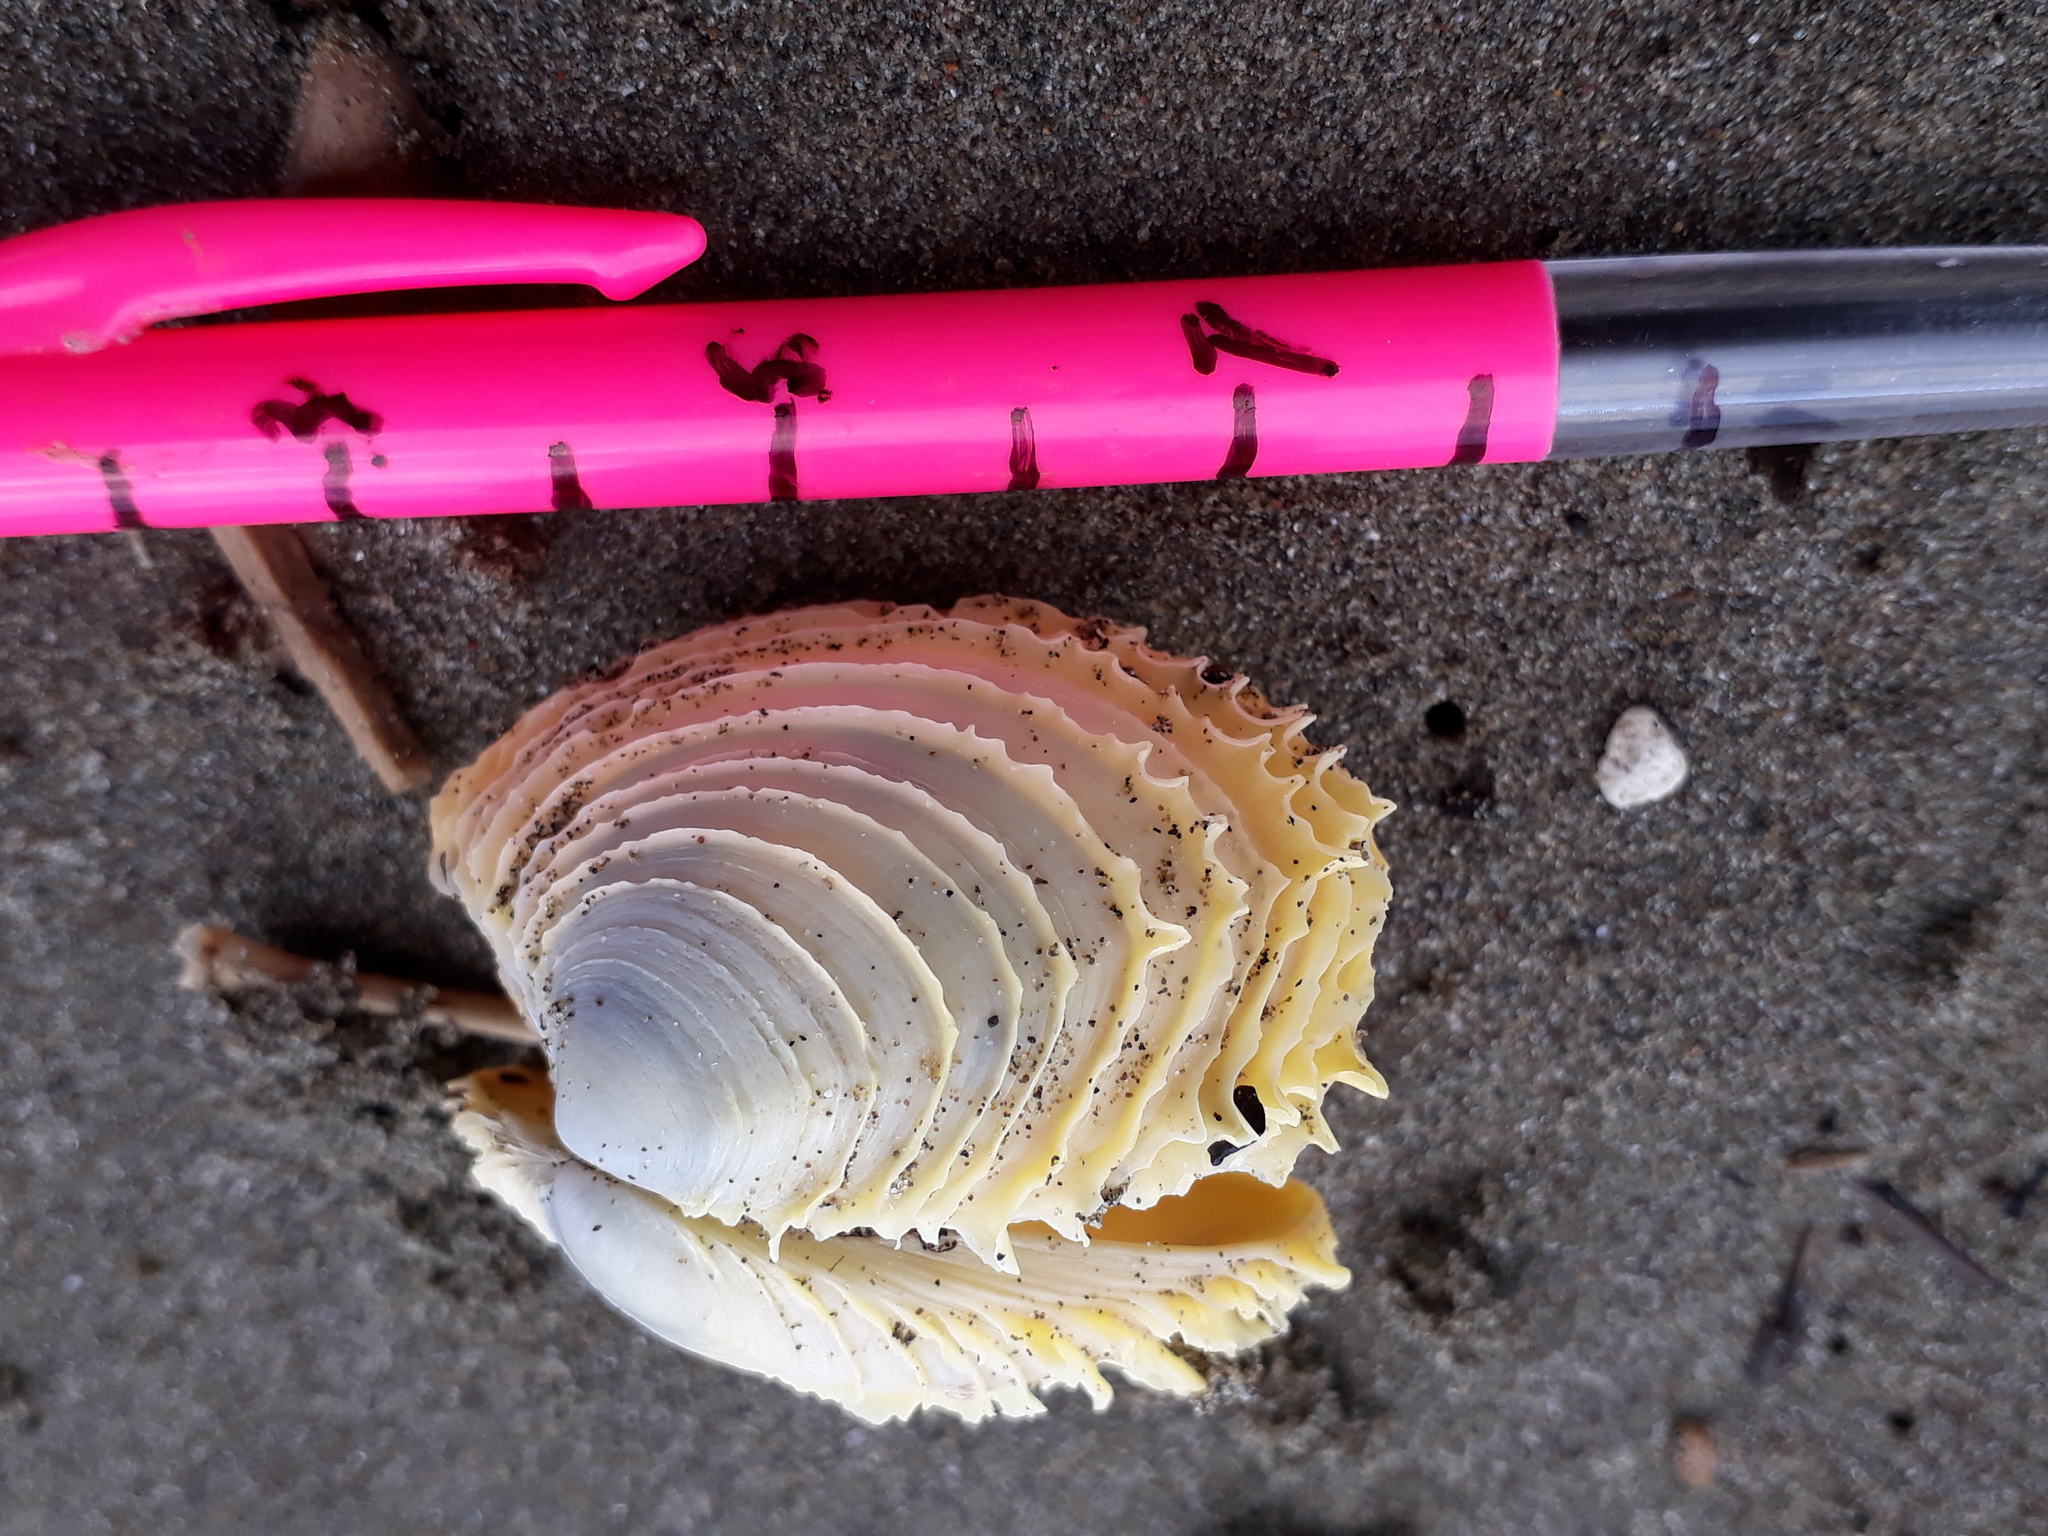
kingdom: Animalia
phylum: Mollusca
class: Bivalvia
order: Venerida
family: Veneridae
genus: Bassina
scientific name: Bassina yatei
